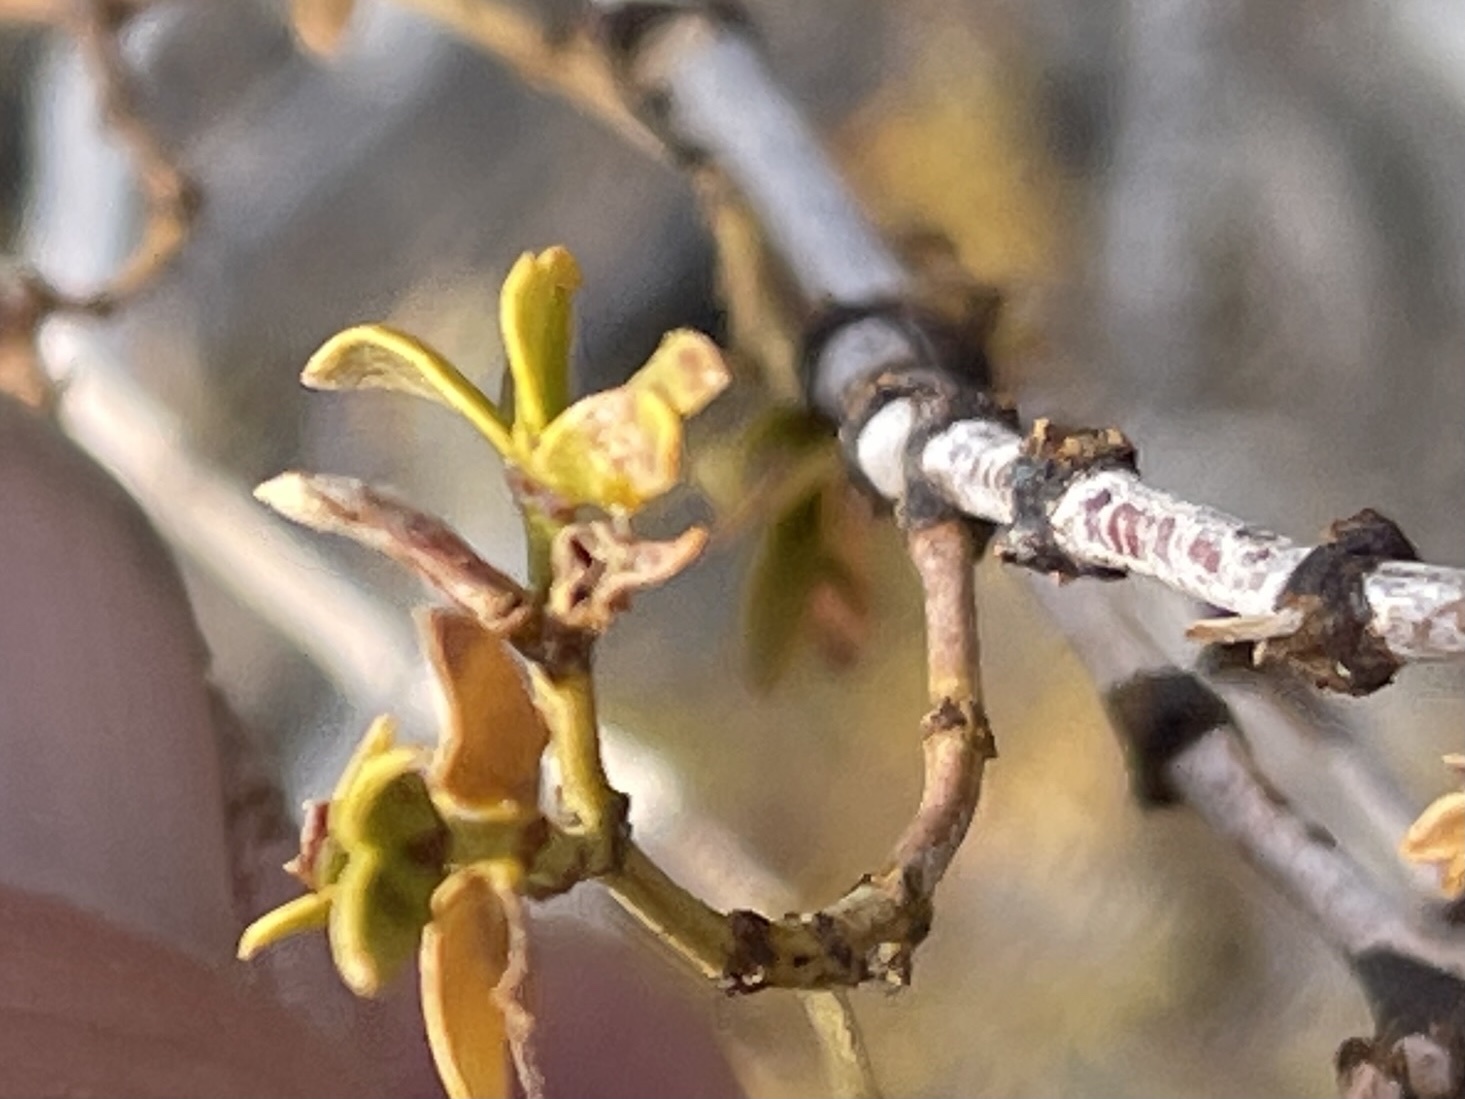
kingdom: Plantae
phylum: Tracheophyta
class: Magnoliopsida
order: Zygophyllales
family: Zygophyllaceae
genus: Larrea
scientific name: Larrea tridentata
